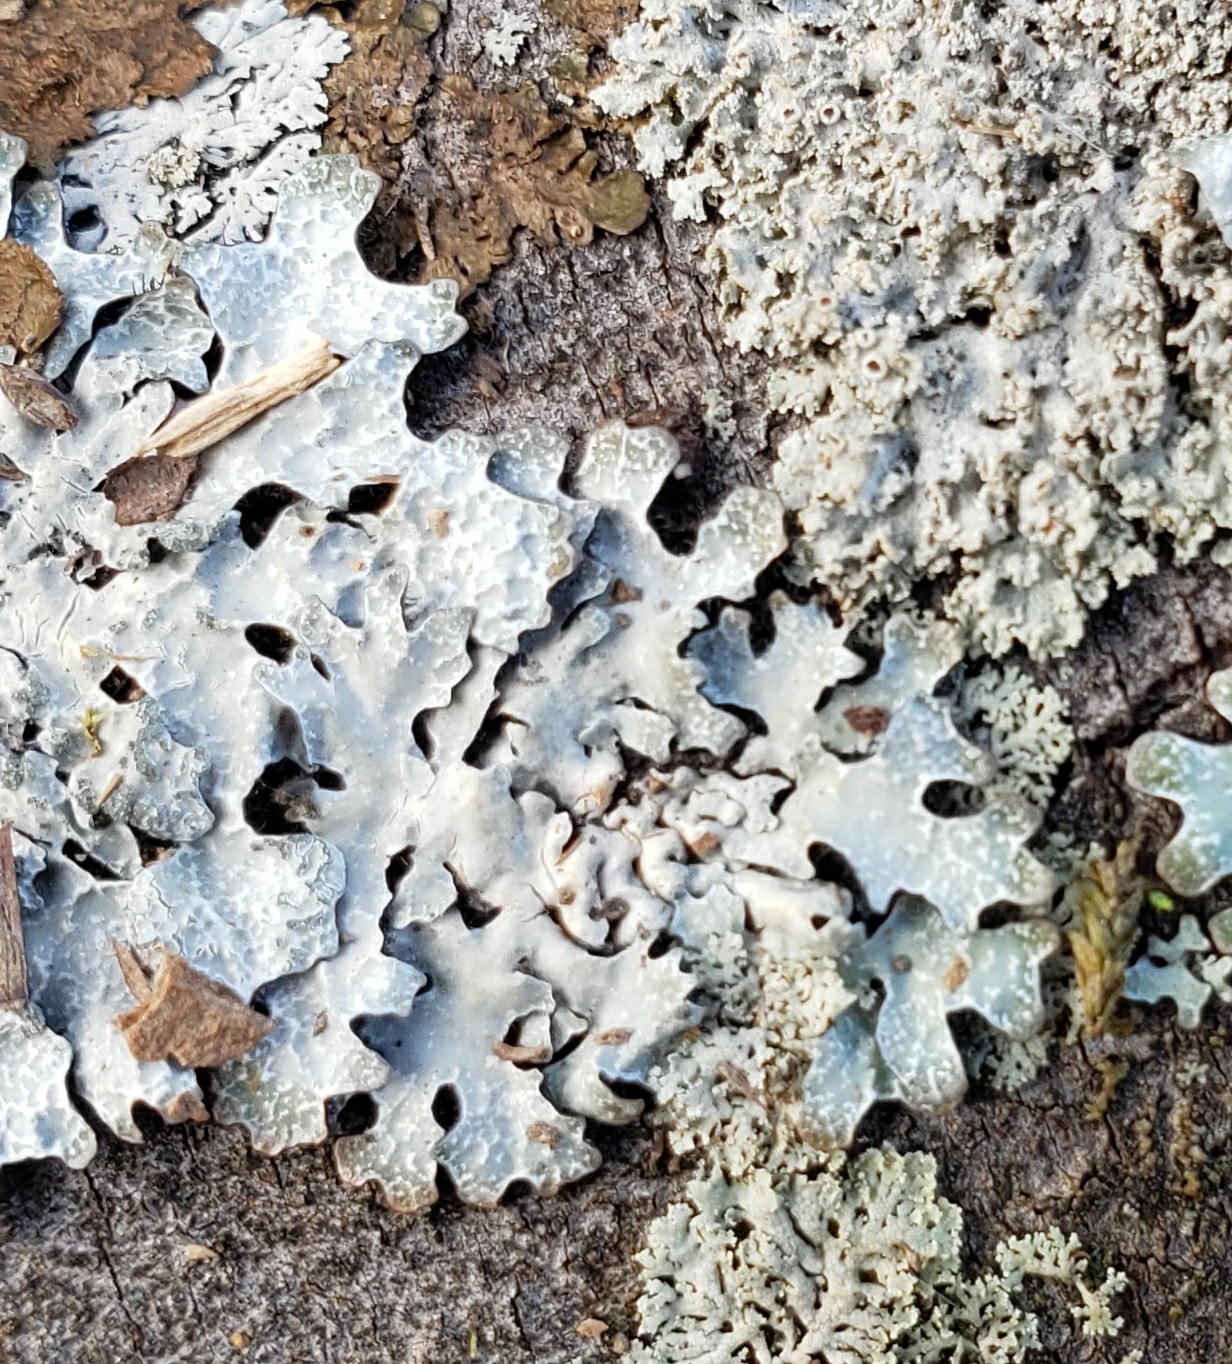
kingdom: Fungi
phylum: Ascomycota
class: Lecanoromycetes
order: Lecanorales
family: Parmeliaceae
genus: Parmelia
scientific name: Parmelia sulcata
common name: Netted shield lichen
